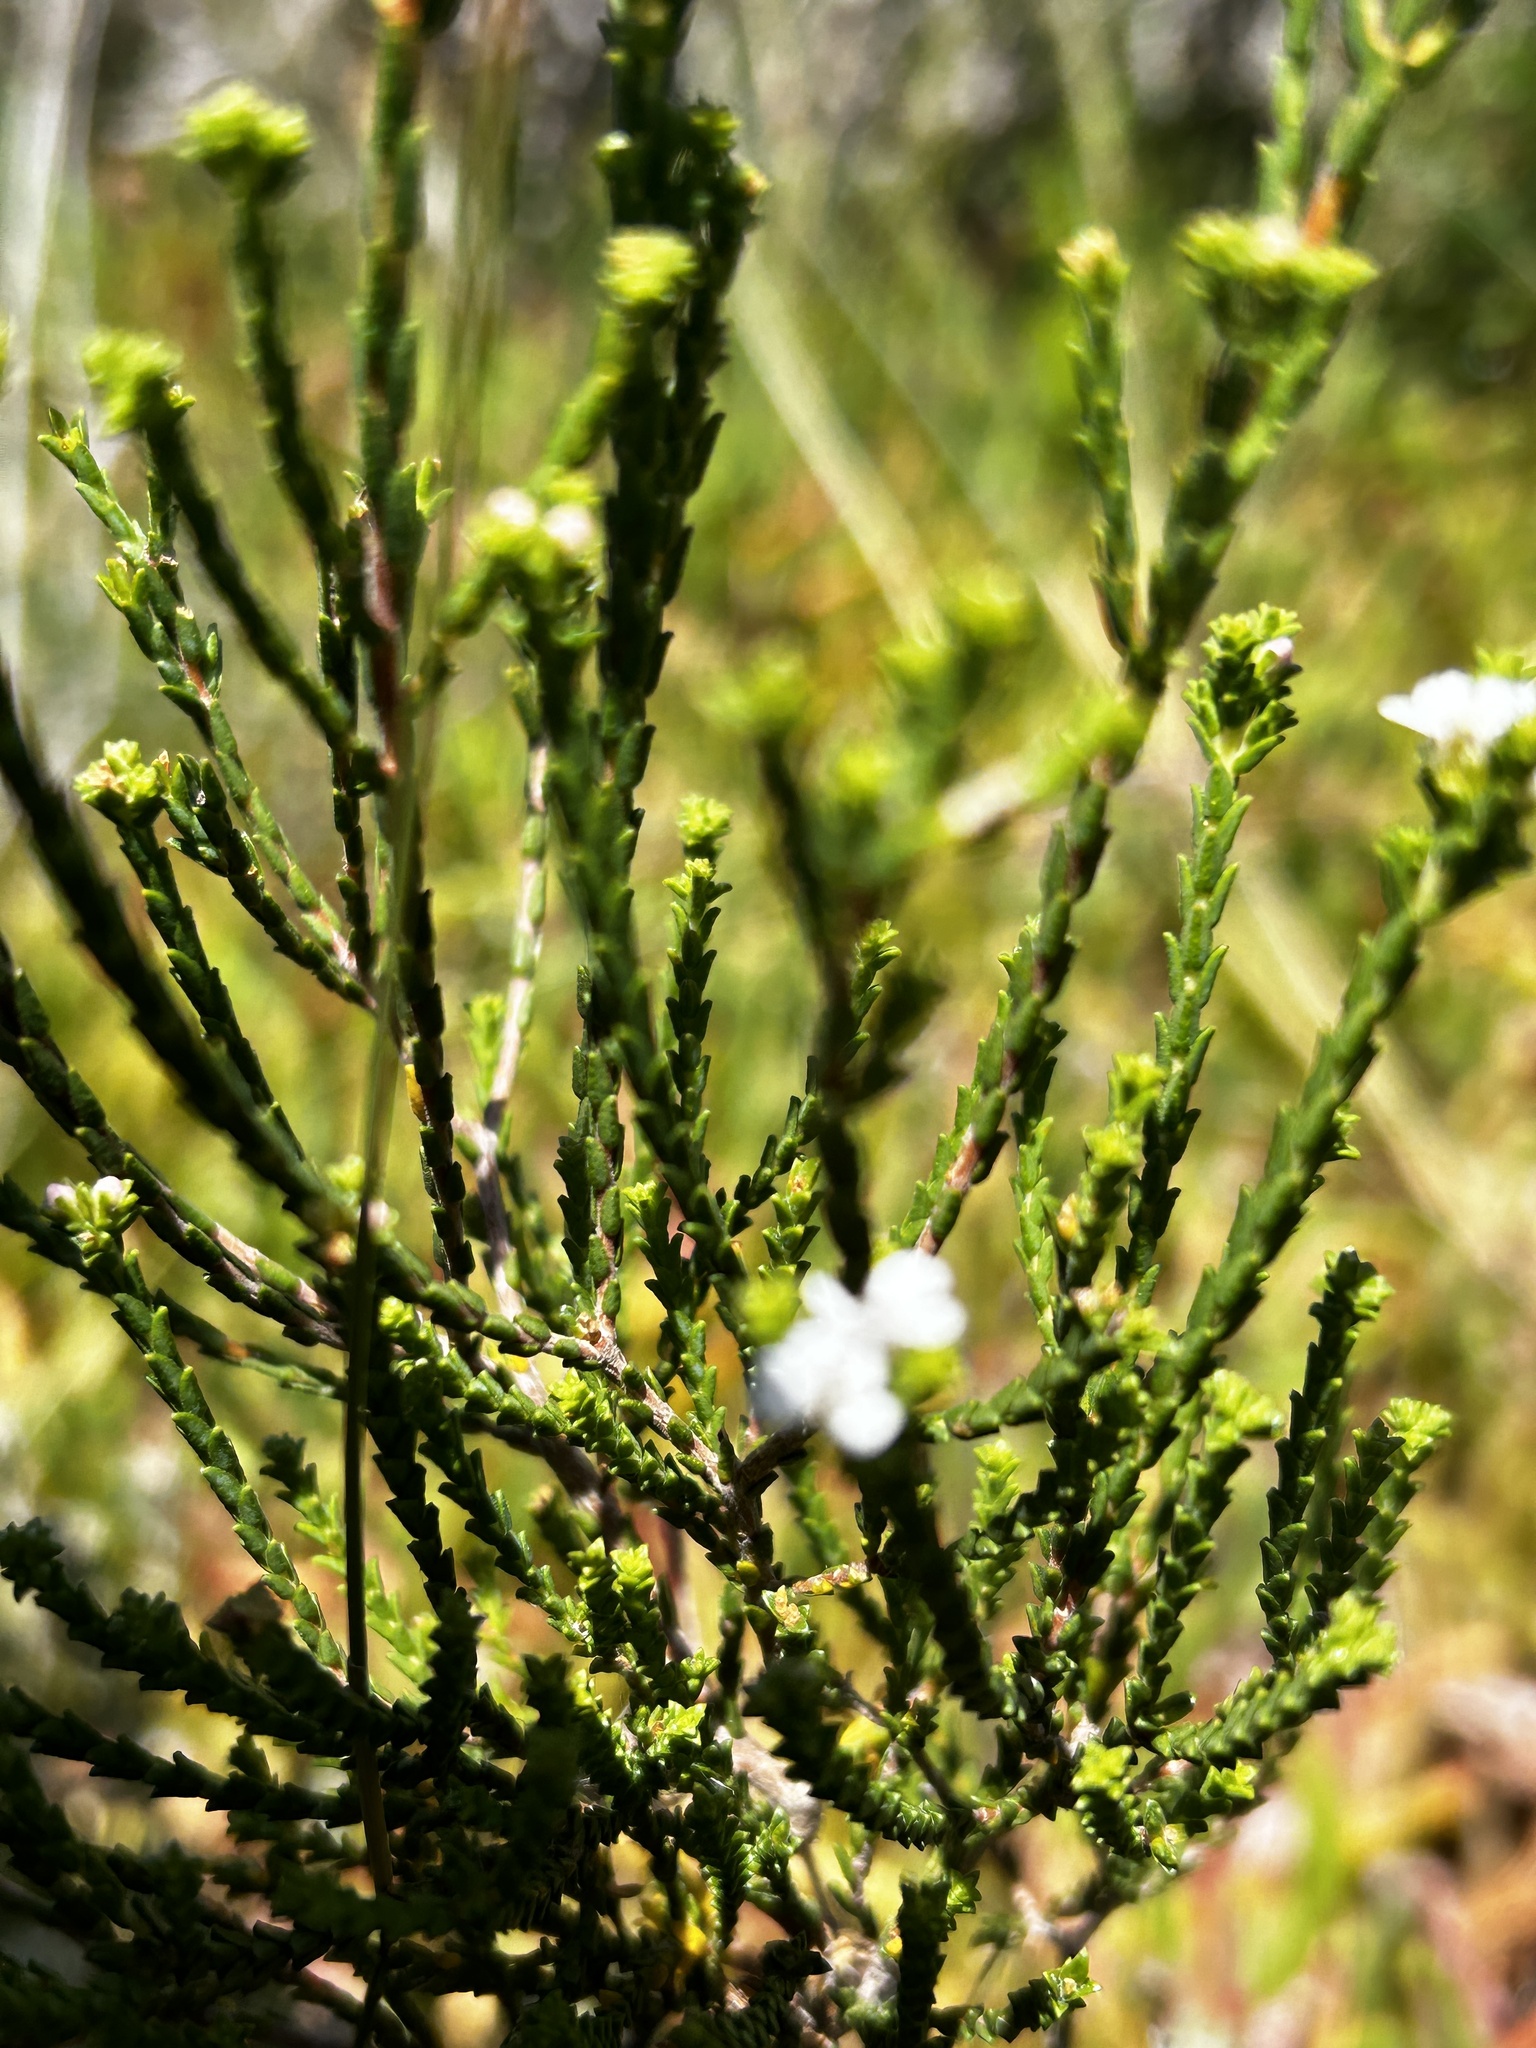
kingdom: Plantae
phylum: Tracheophyta
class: Magnoliopsida
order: Sapindales
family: Rutaceae
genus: Euchaetis
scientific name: Euchaetis albertiniana
